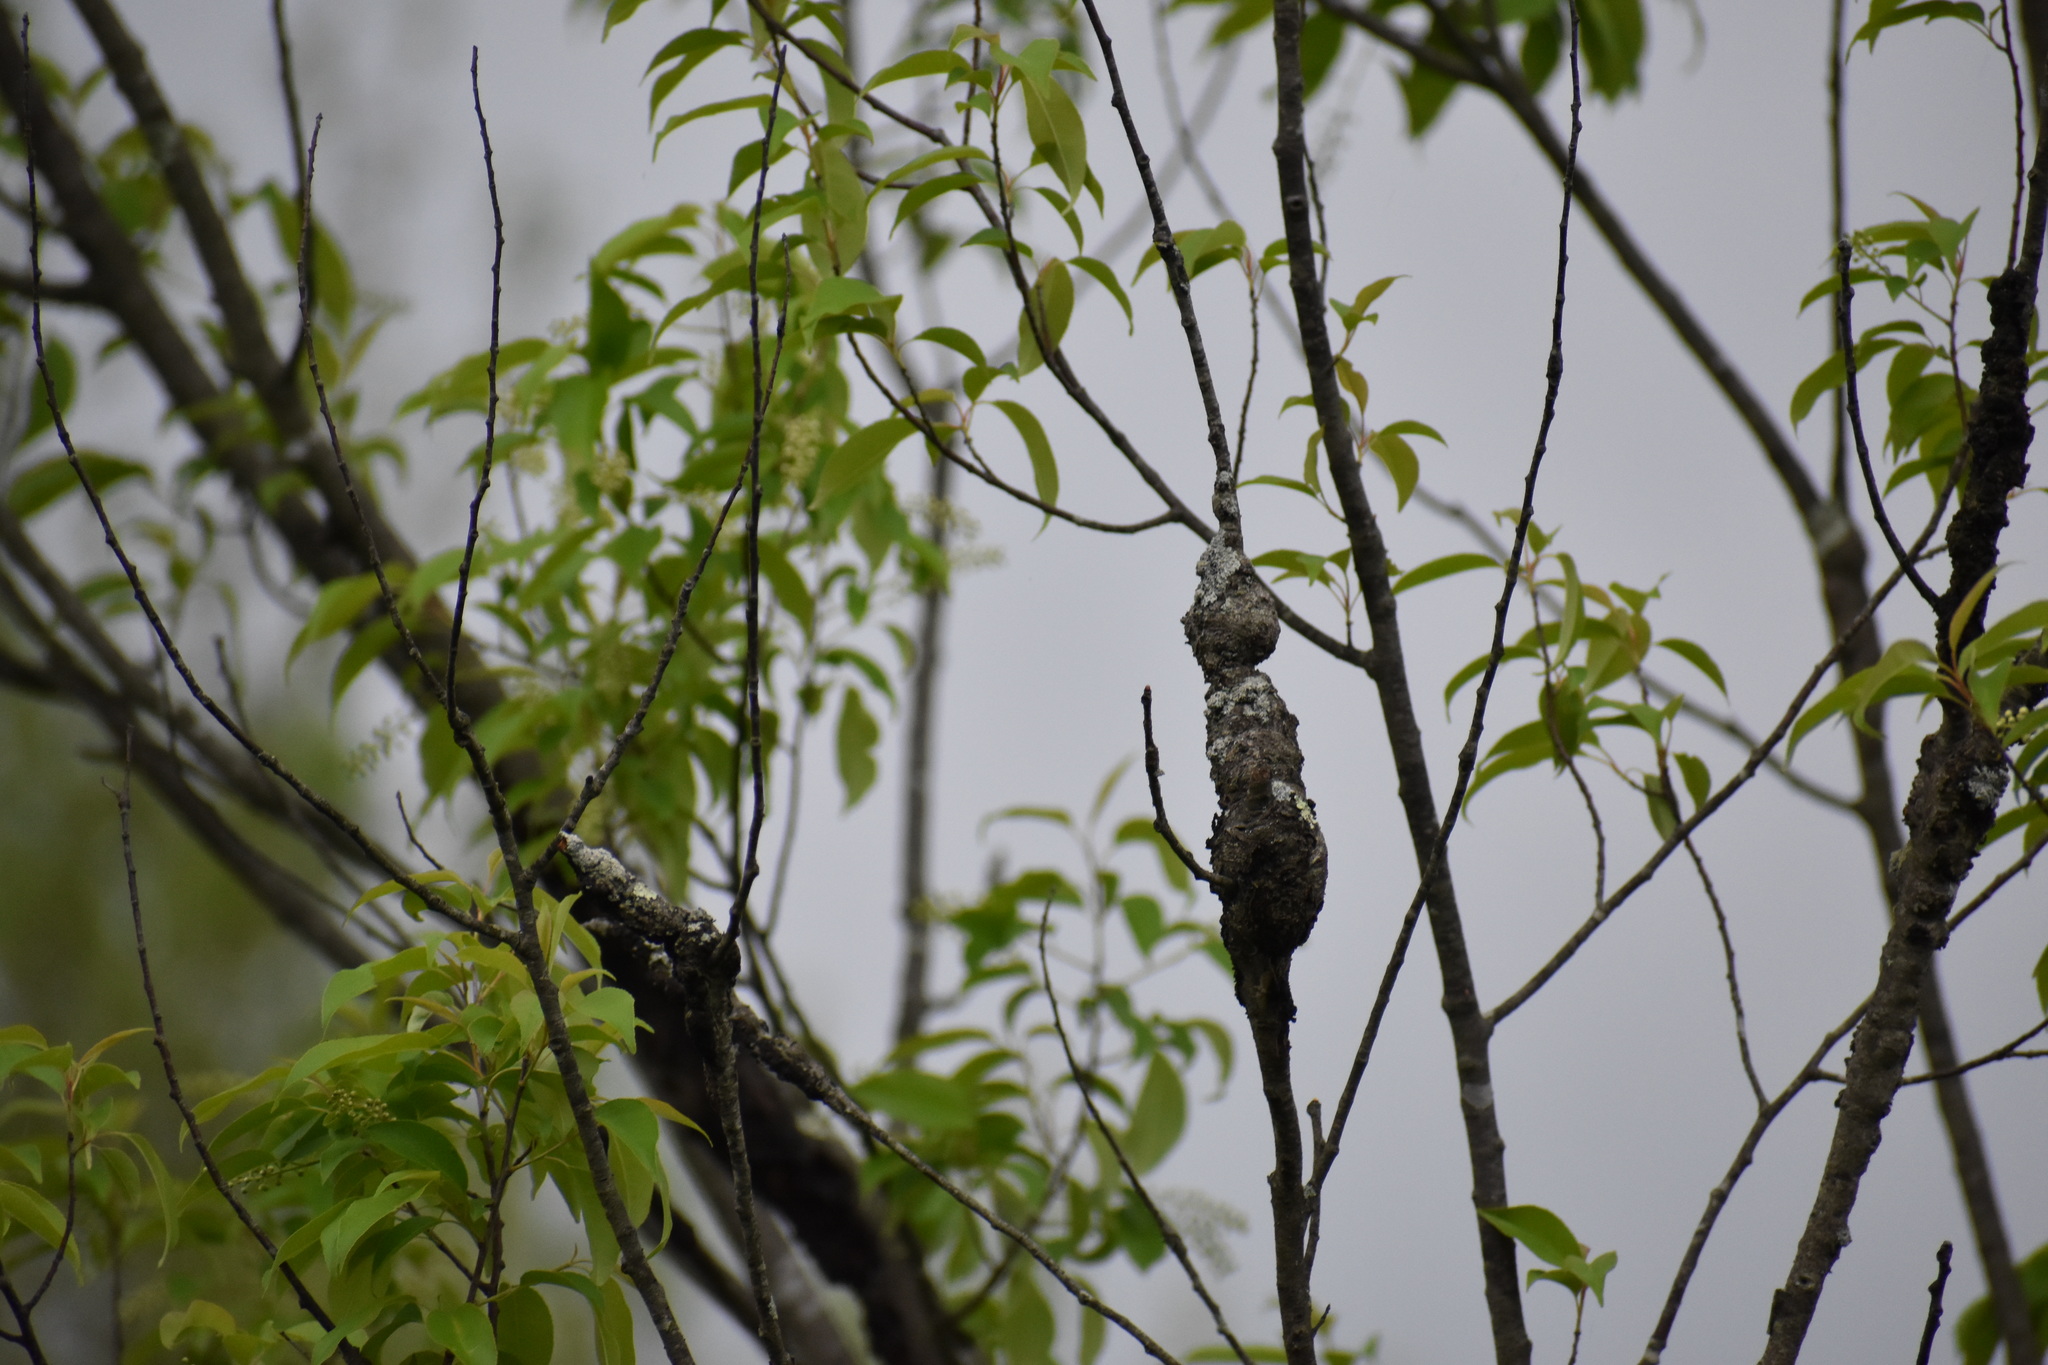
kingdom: Fungi
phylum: Ascomycota
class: Dothideomycetes
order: Venturiales
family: Venturiaceae
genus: Apiosporina
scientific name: Apiosporina morbosa
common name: Black knot
